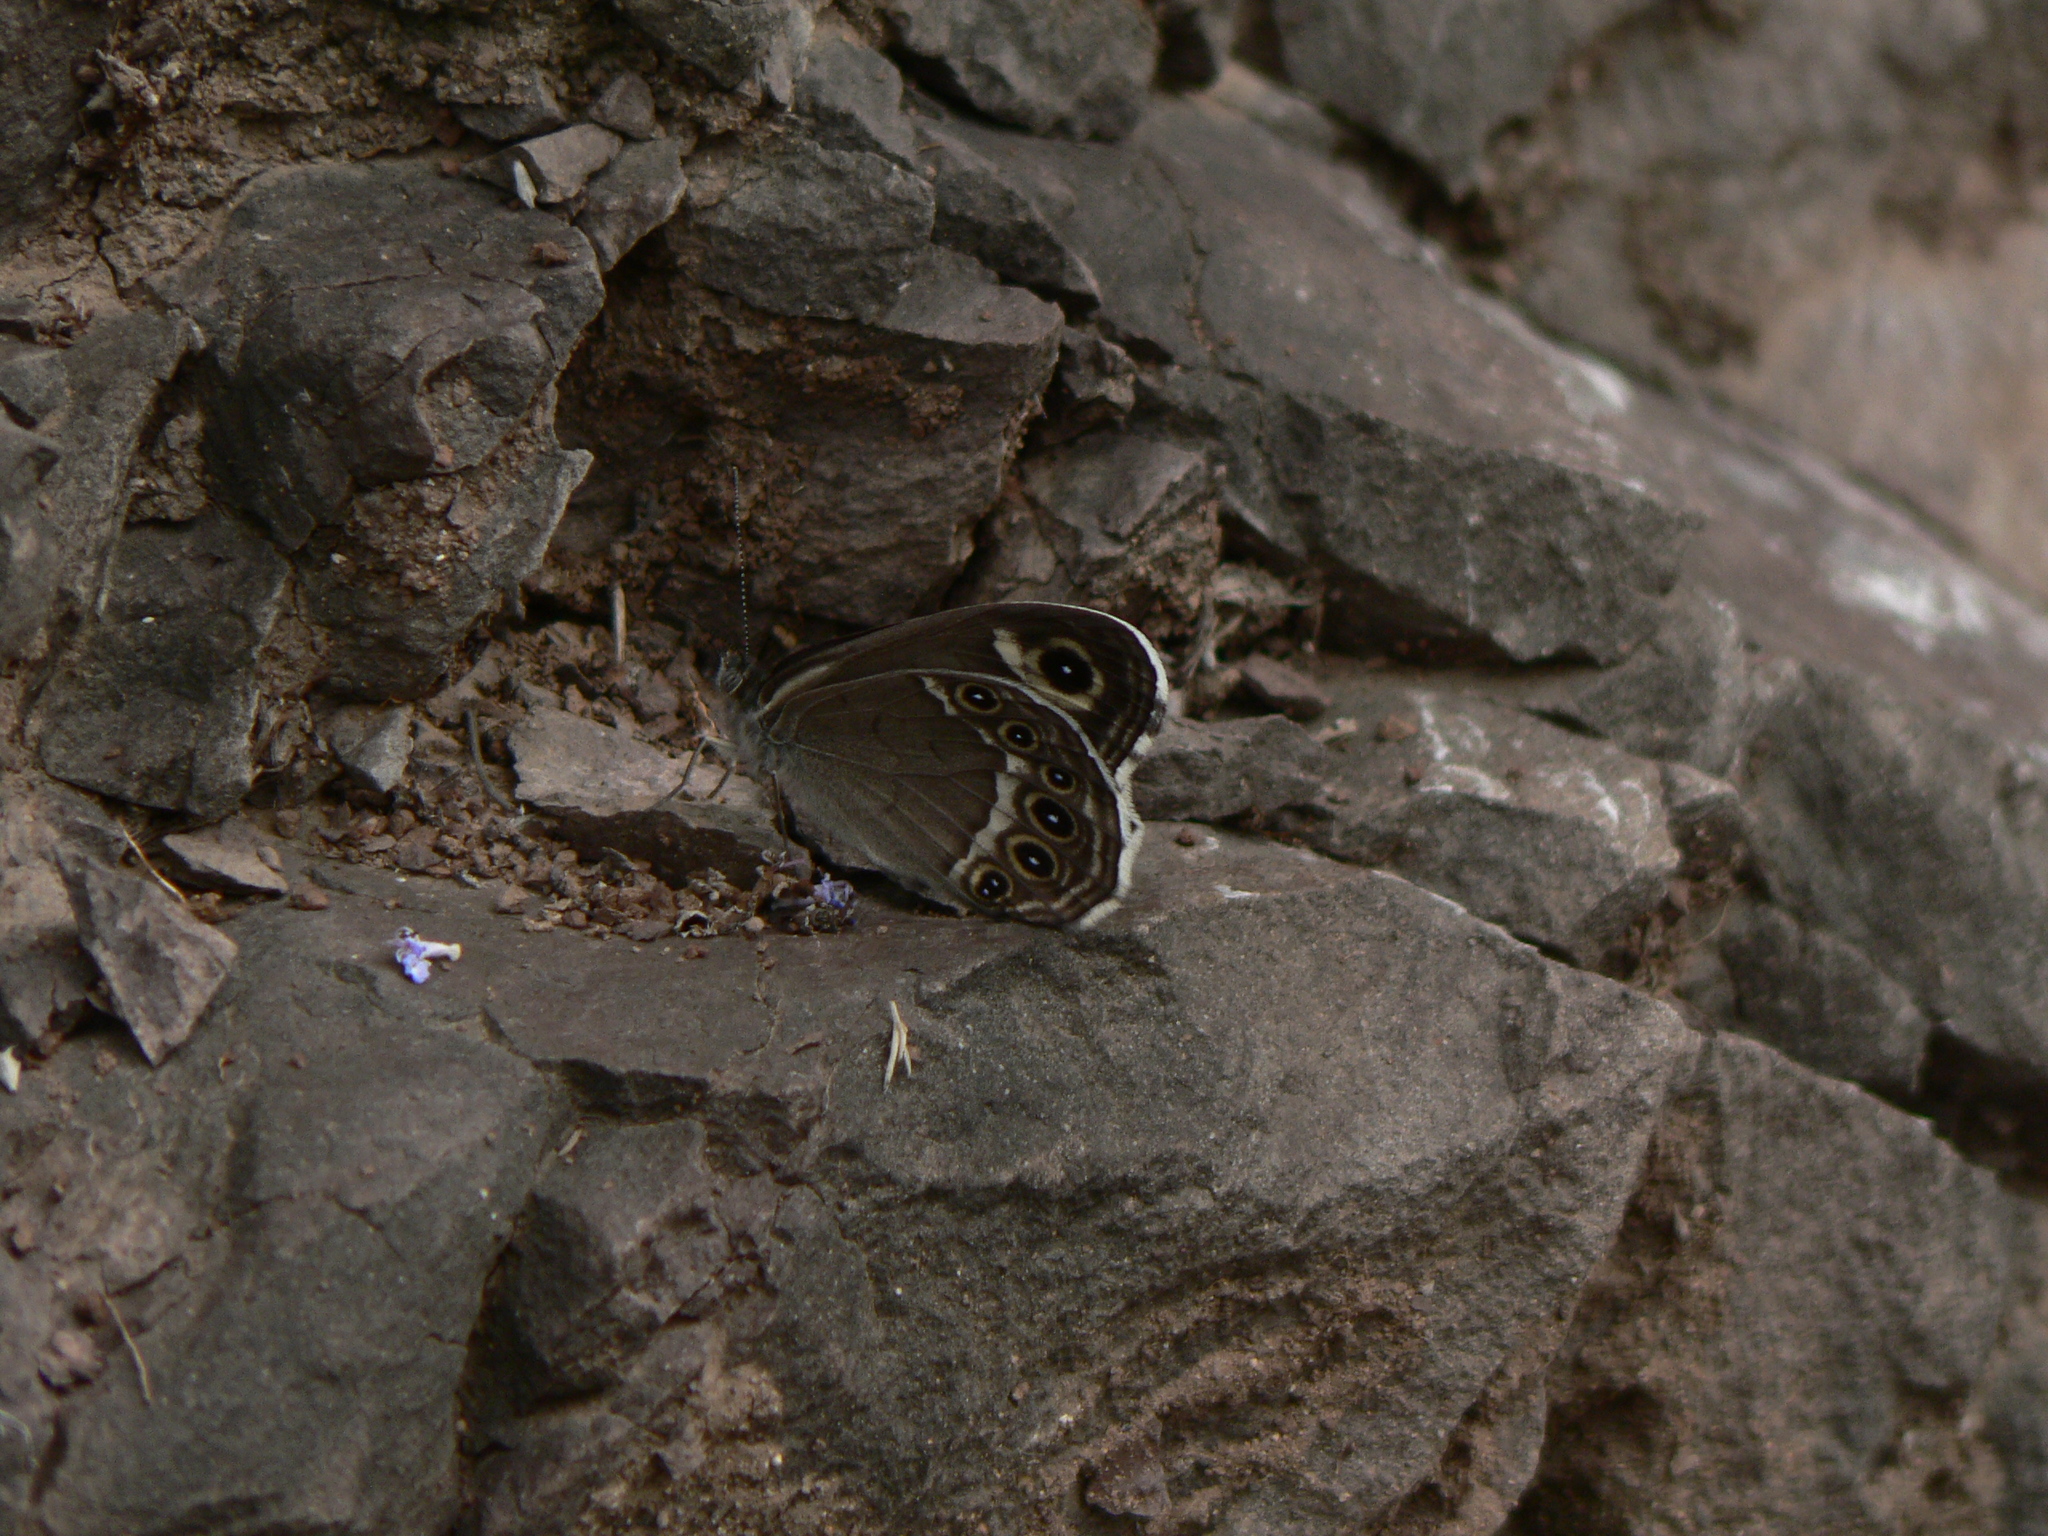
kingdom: Animalia
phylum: Arthropoda
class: Insecta
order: Lepidoptera
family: Nymphalidae
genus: Pararge
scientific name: Pararge Lasiommata deidamia
